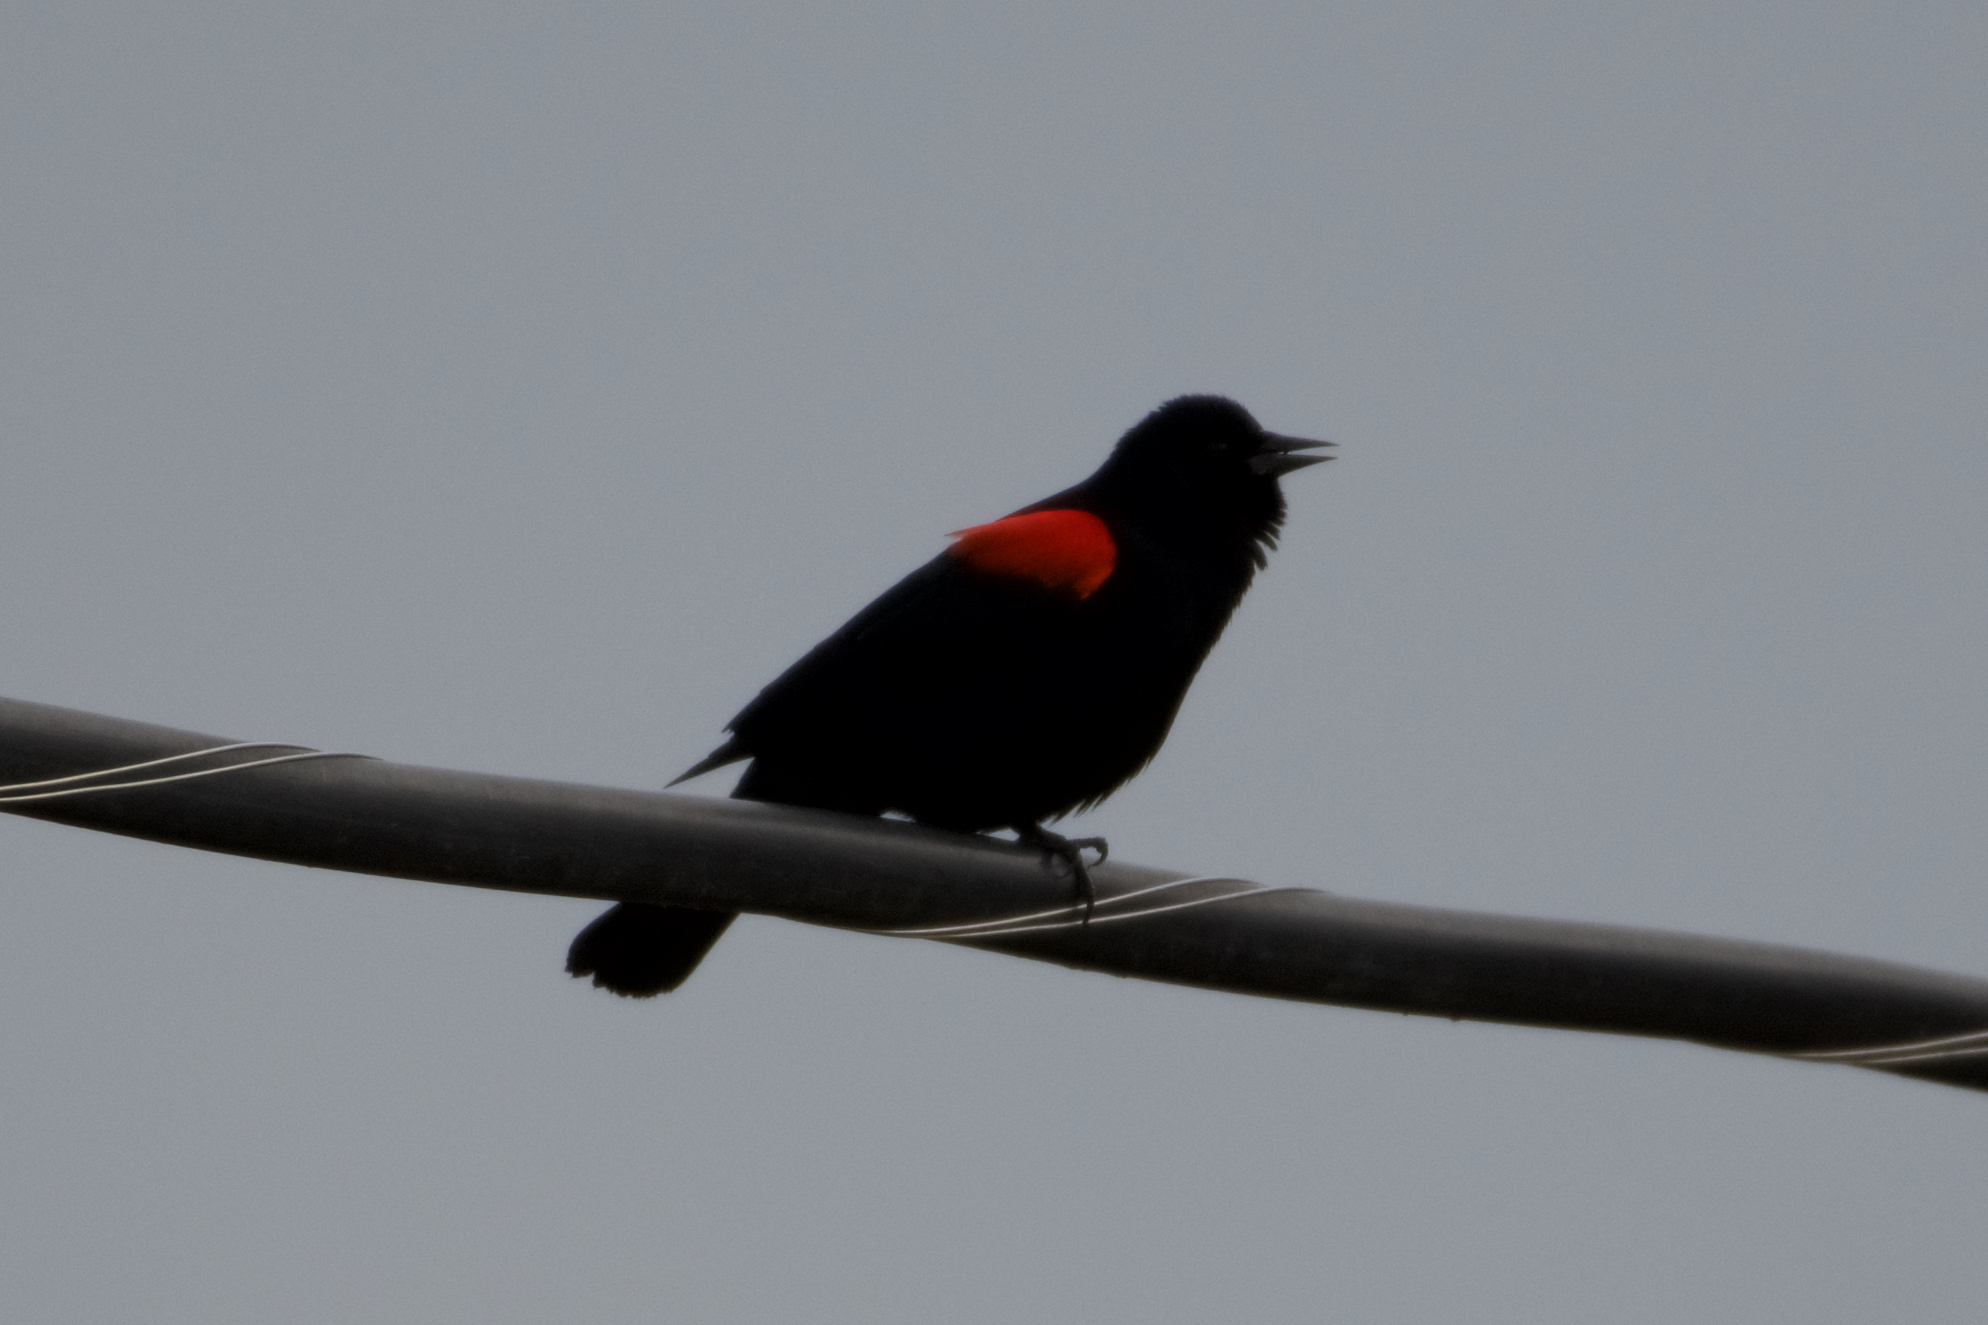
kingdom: Animalia
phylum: Chordata
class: Aves
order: Passeriformes
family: Icteridae
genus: Agelaius
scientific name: Agelaius phoeniceus
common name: Red-winged blackbird
